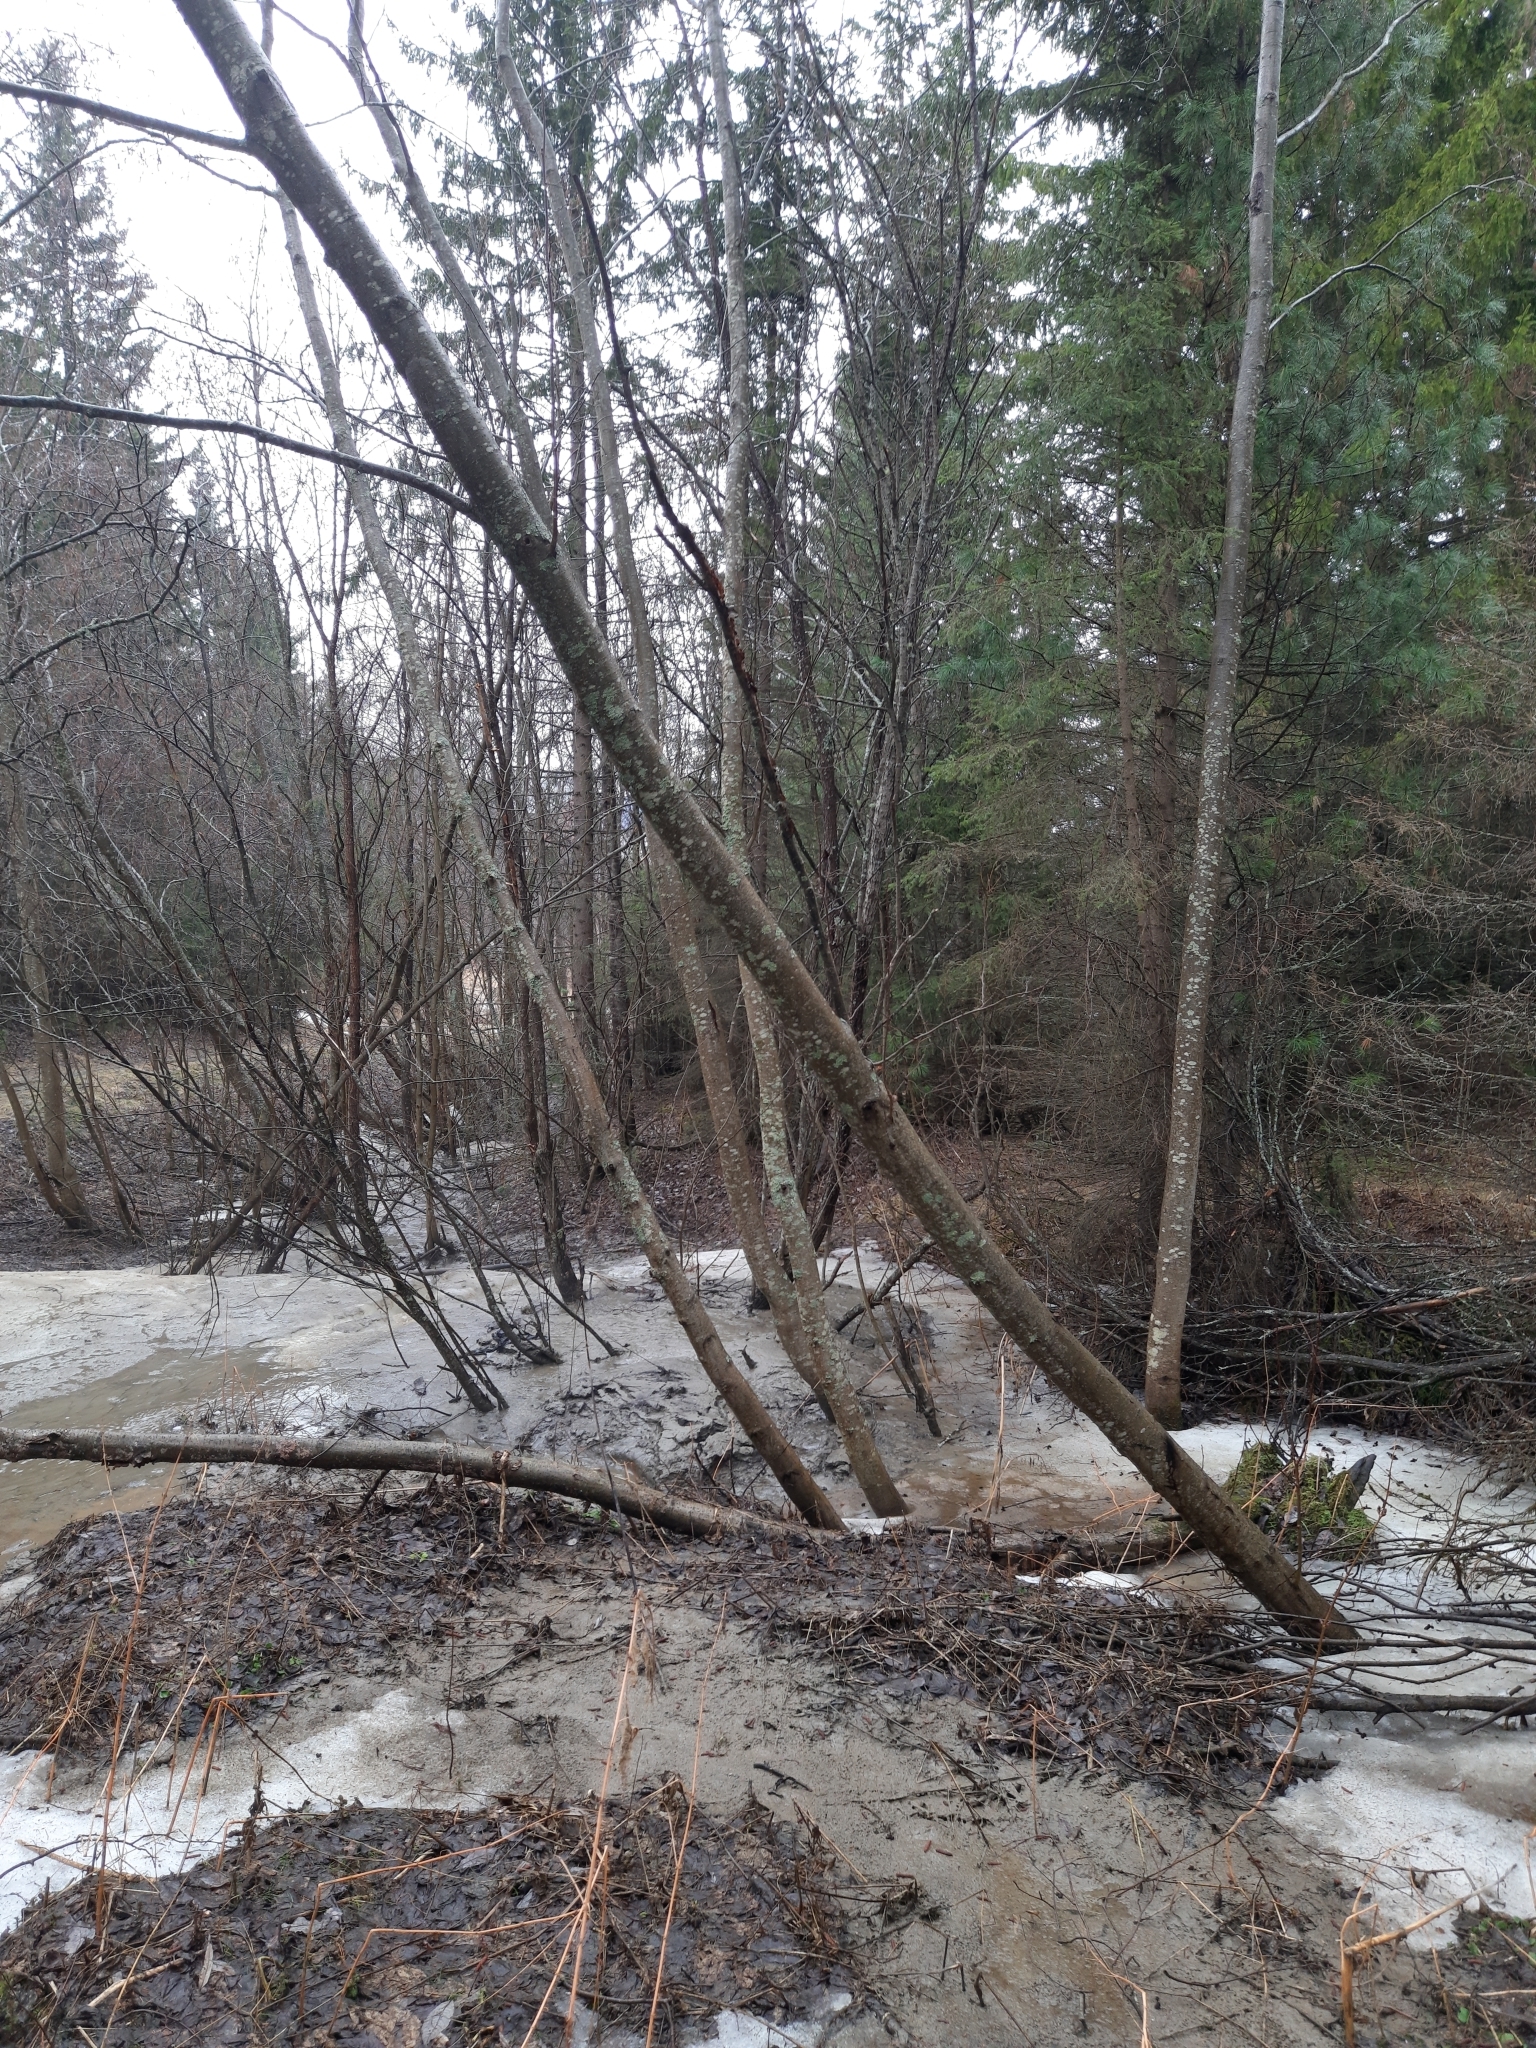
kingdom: Plantae
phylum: Tracheophyta
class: Magnoliopsida
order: Fagales
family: Betulaceae
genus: Alnus
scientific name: Alnus incana
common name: Grey alder
